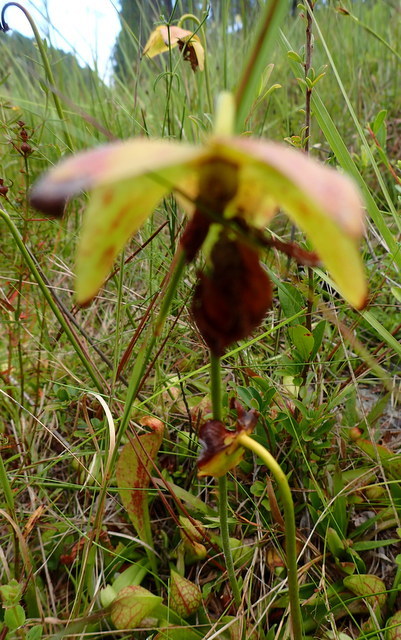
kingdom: Plantae
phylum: Tracheophyta
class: Magnoliopsida
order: Ericales
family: Sarraceniaceae
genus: Sarracenia
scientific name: Sarracenia psittacina
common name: Parrot pitcherplant
